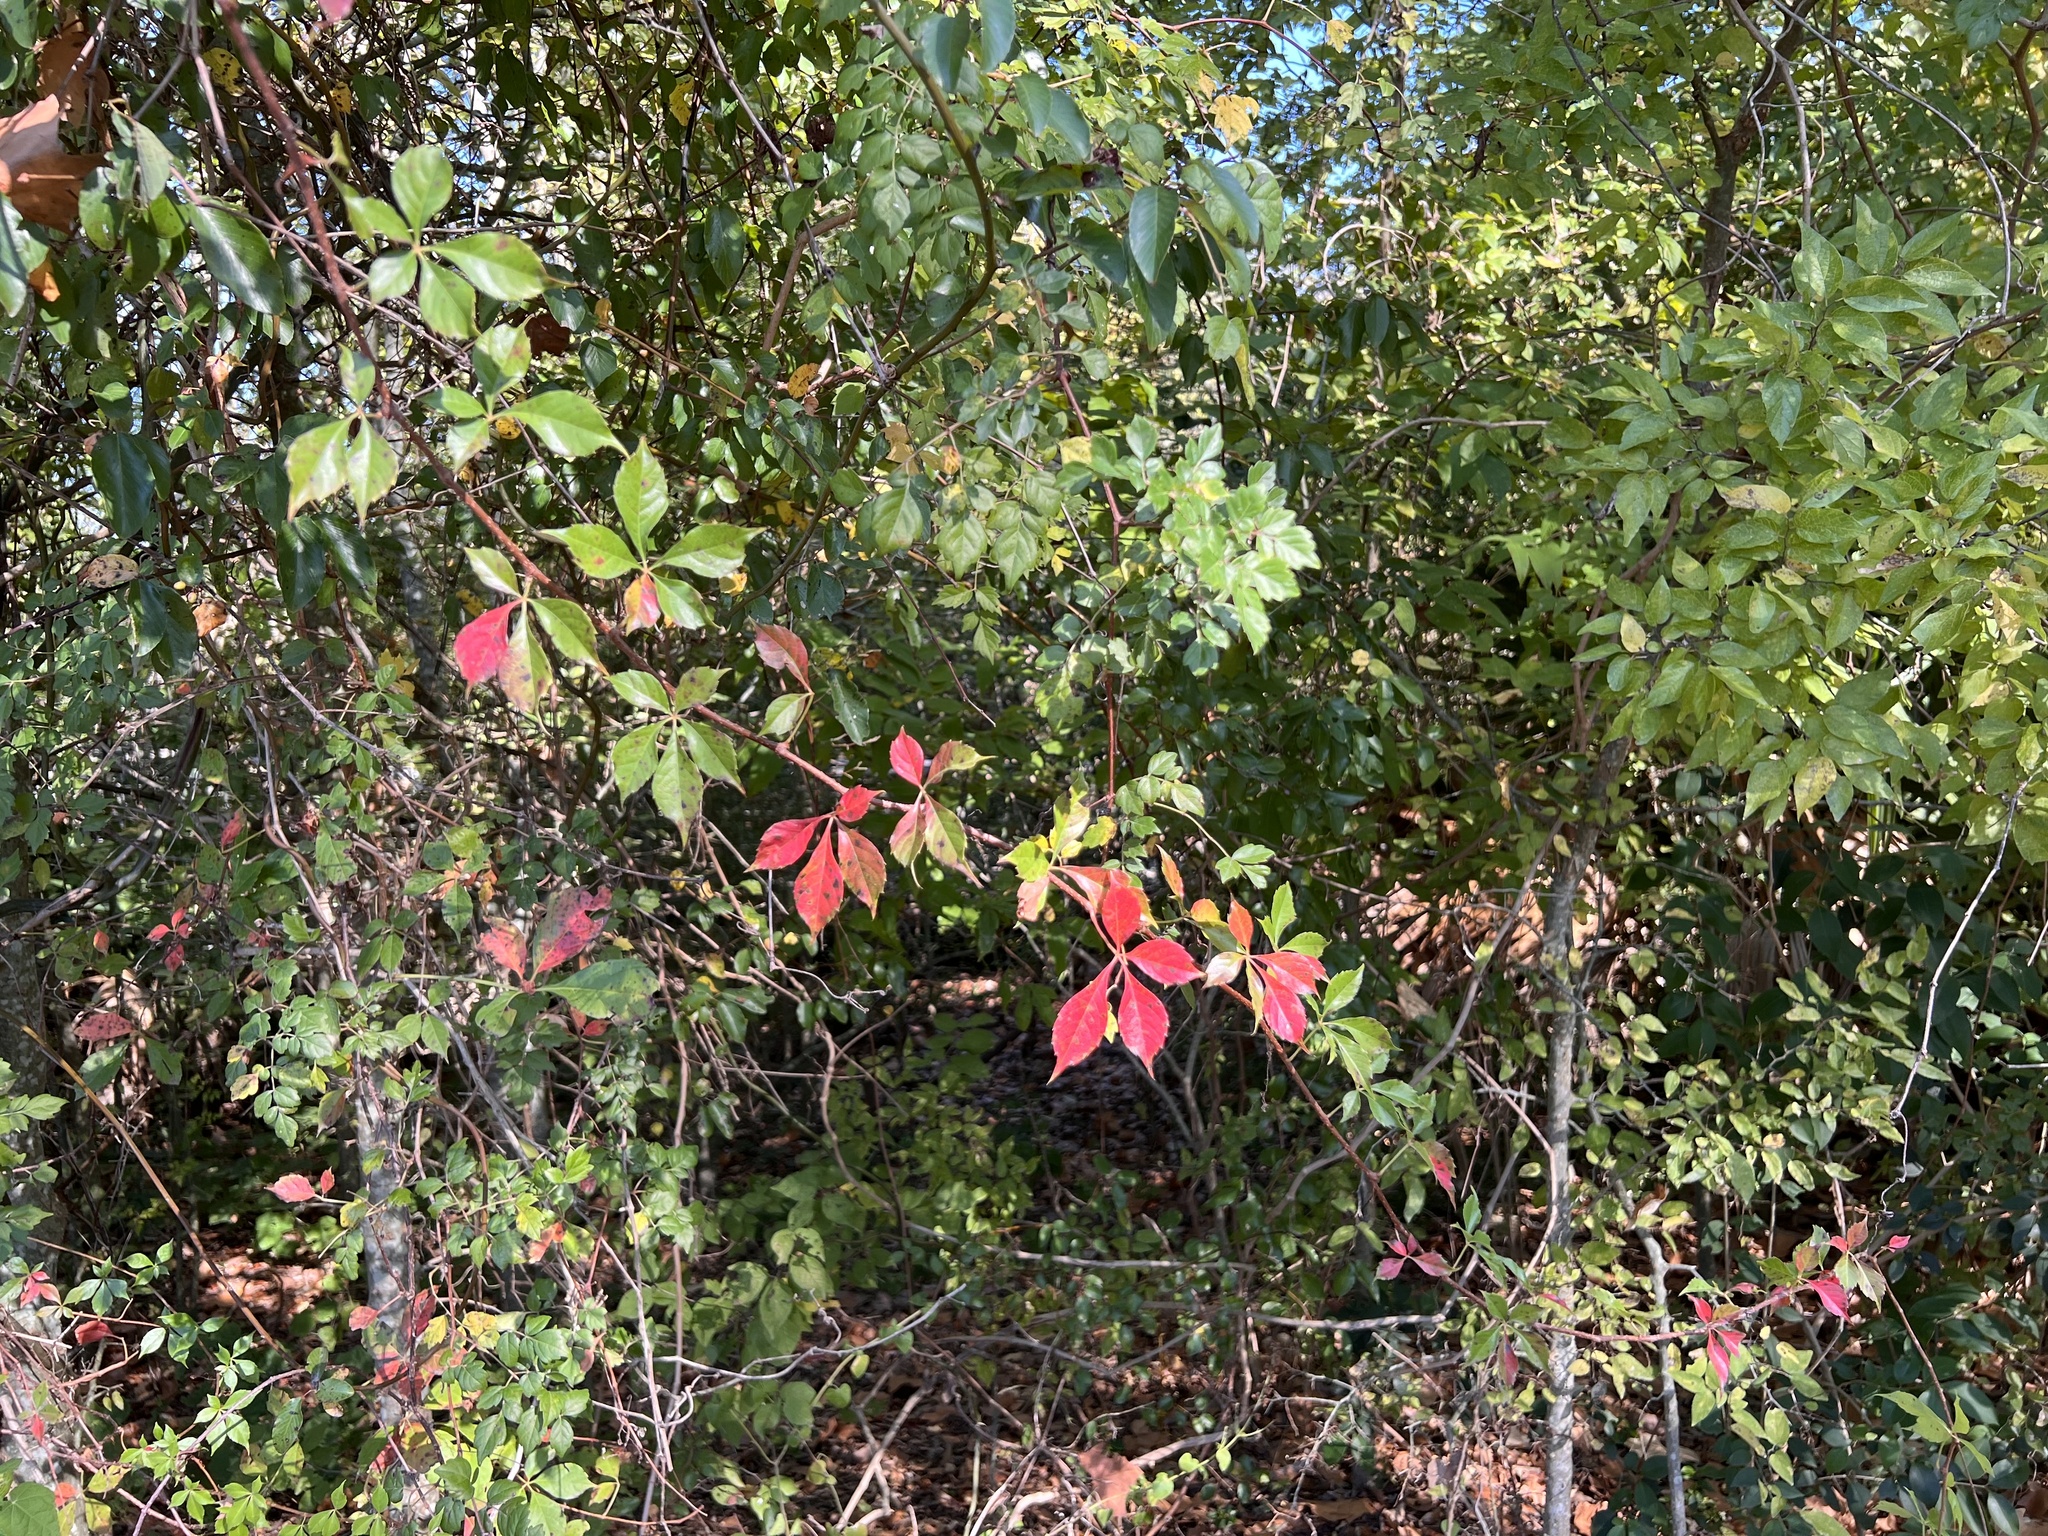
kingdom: Plantae
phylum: Tracheophyta
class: Magnoliopsida
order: Vitales
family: Vitaceae
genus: Parthenocissus
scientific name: Parthenocissus quinquefolia
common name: Virginia-creeper
